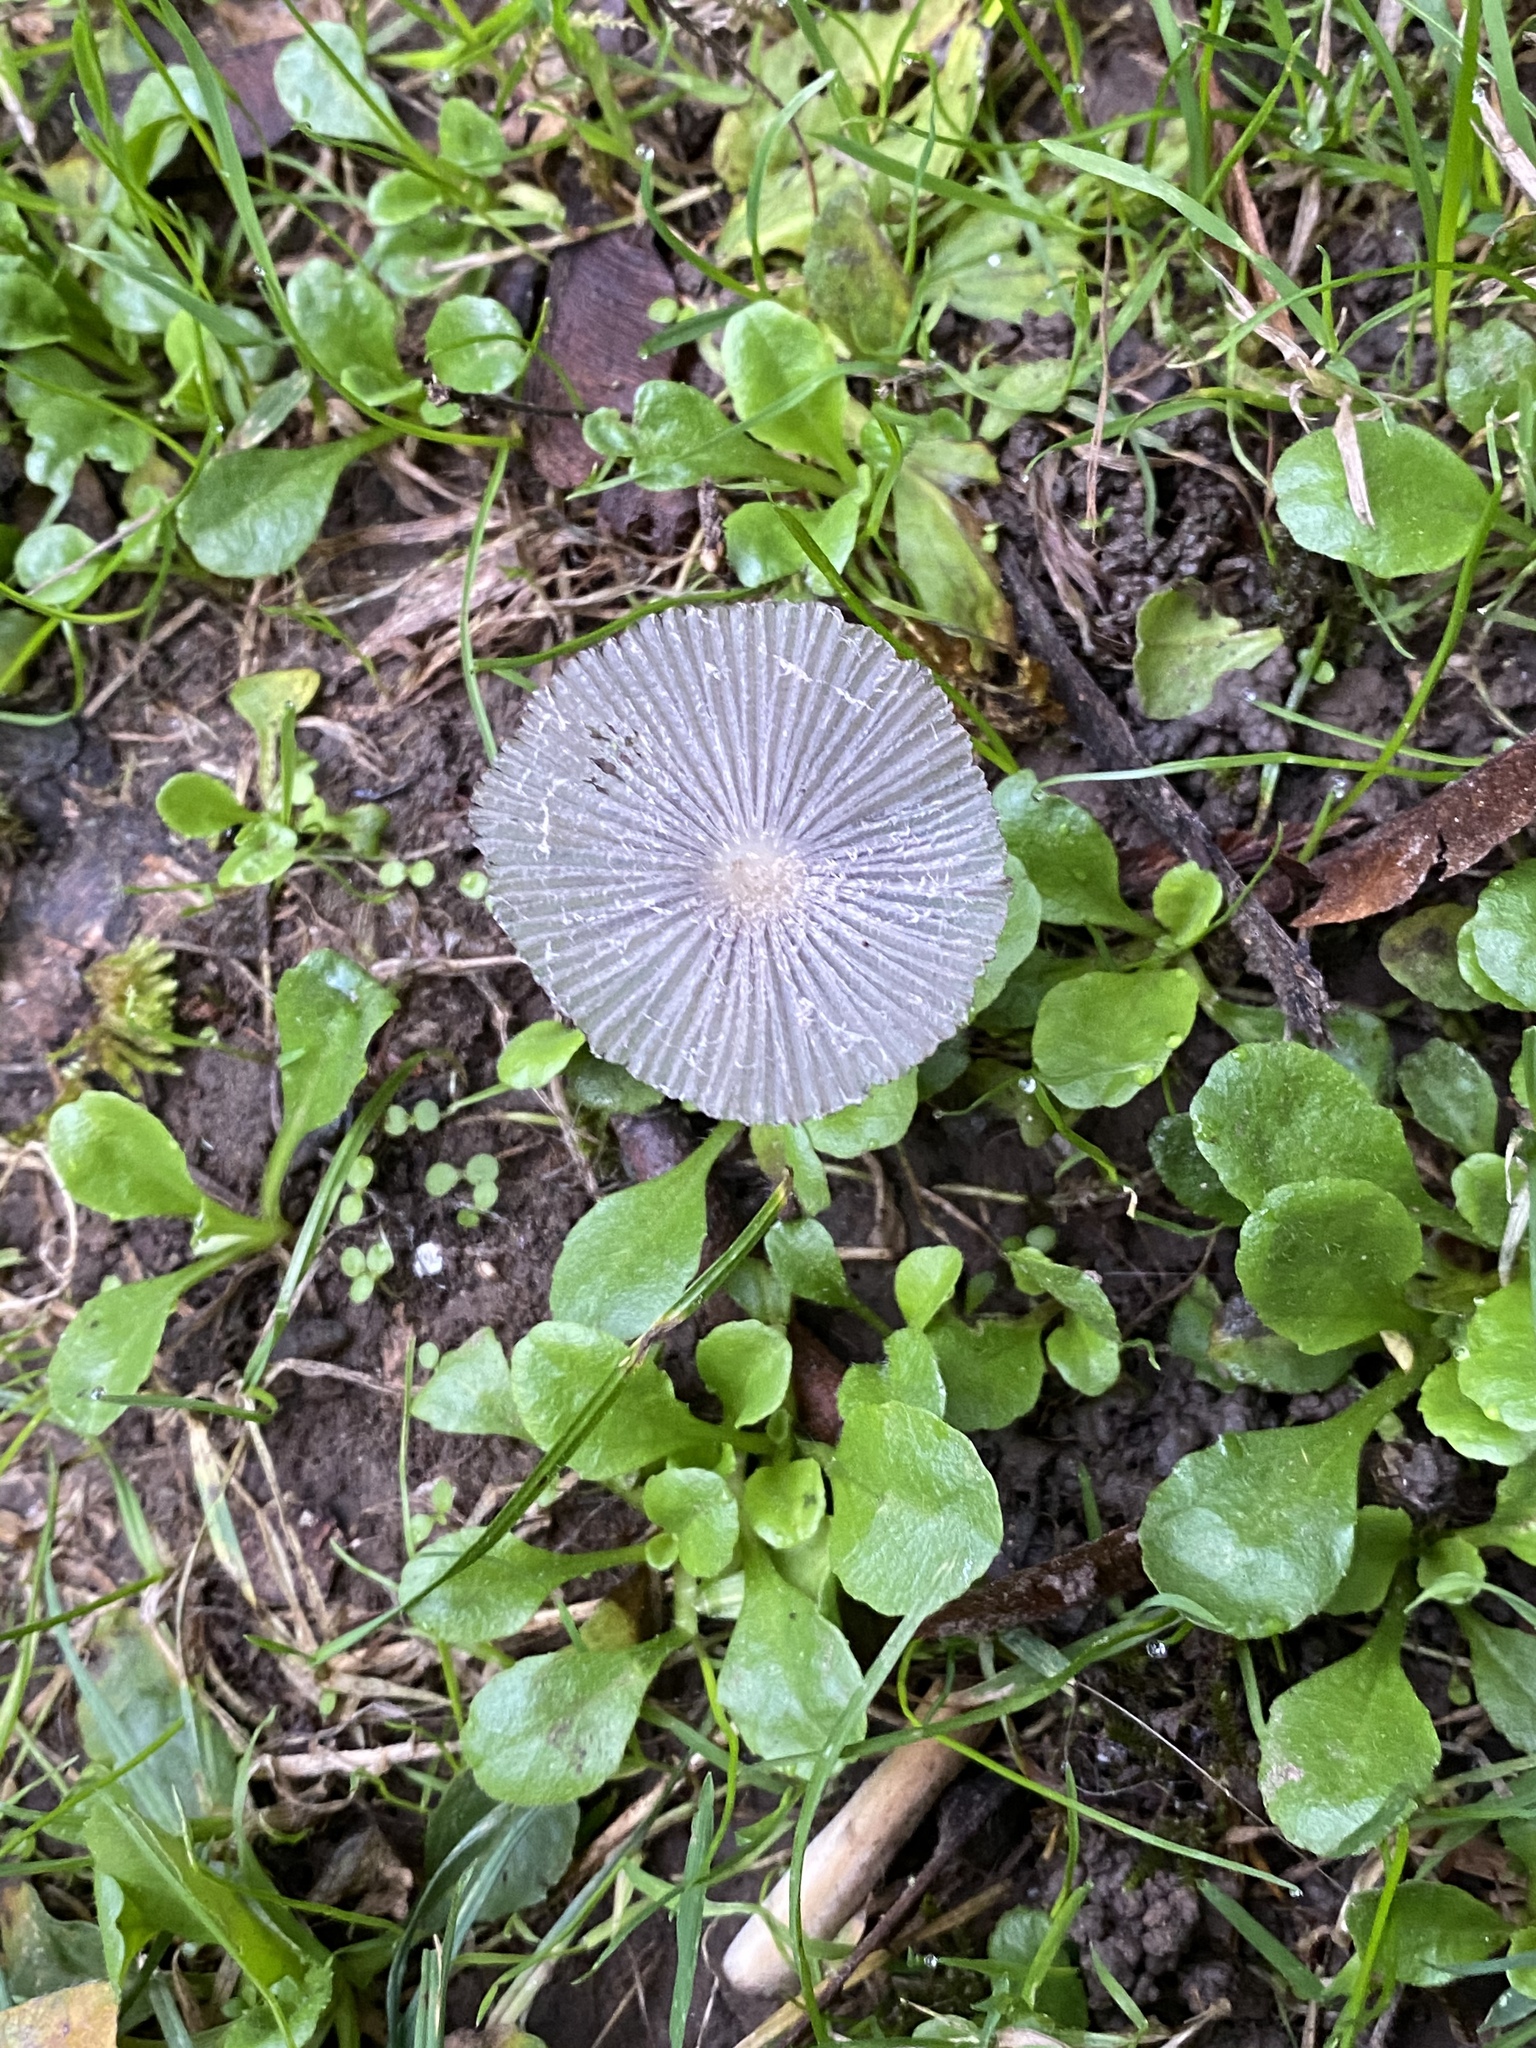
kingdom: Fungi
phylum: Basidiomycota
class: Agaricomycetes
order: Agaricales
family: Psathyrellaceae
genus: Coprinopsis
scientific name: Coprinopsis lagopus
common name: Hare'sfoot inkcap
